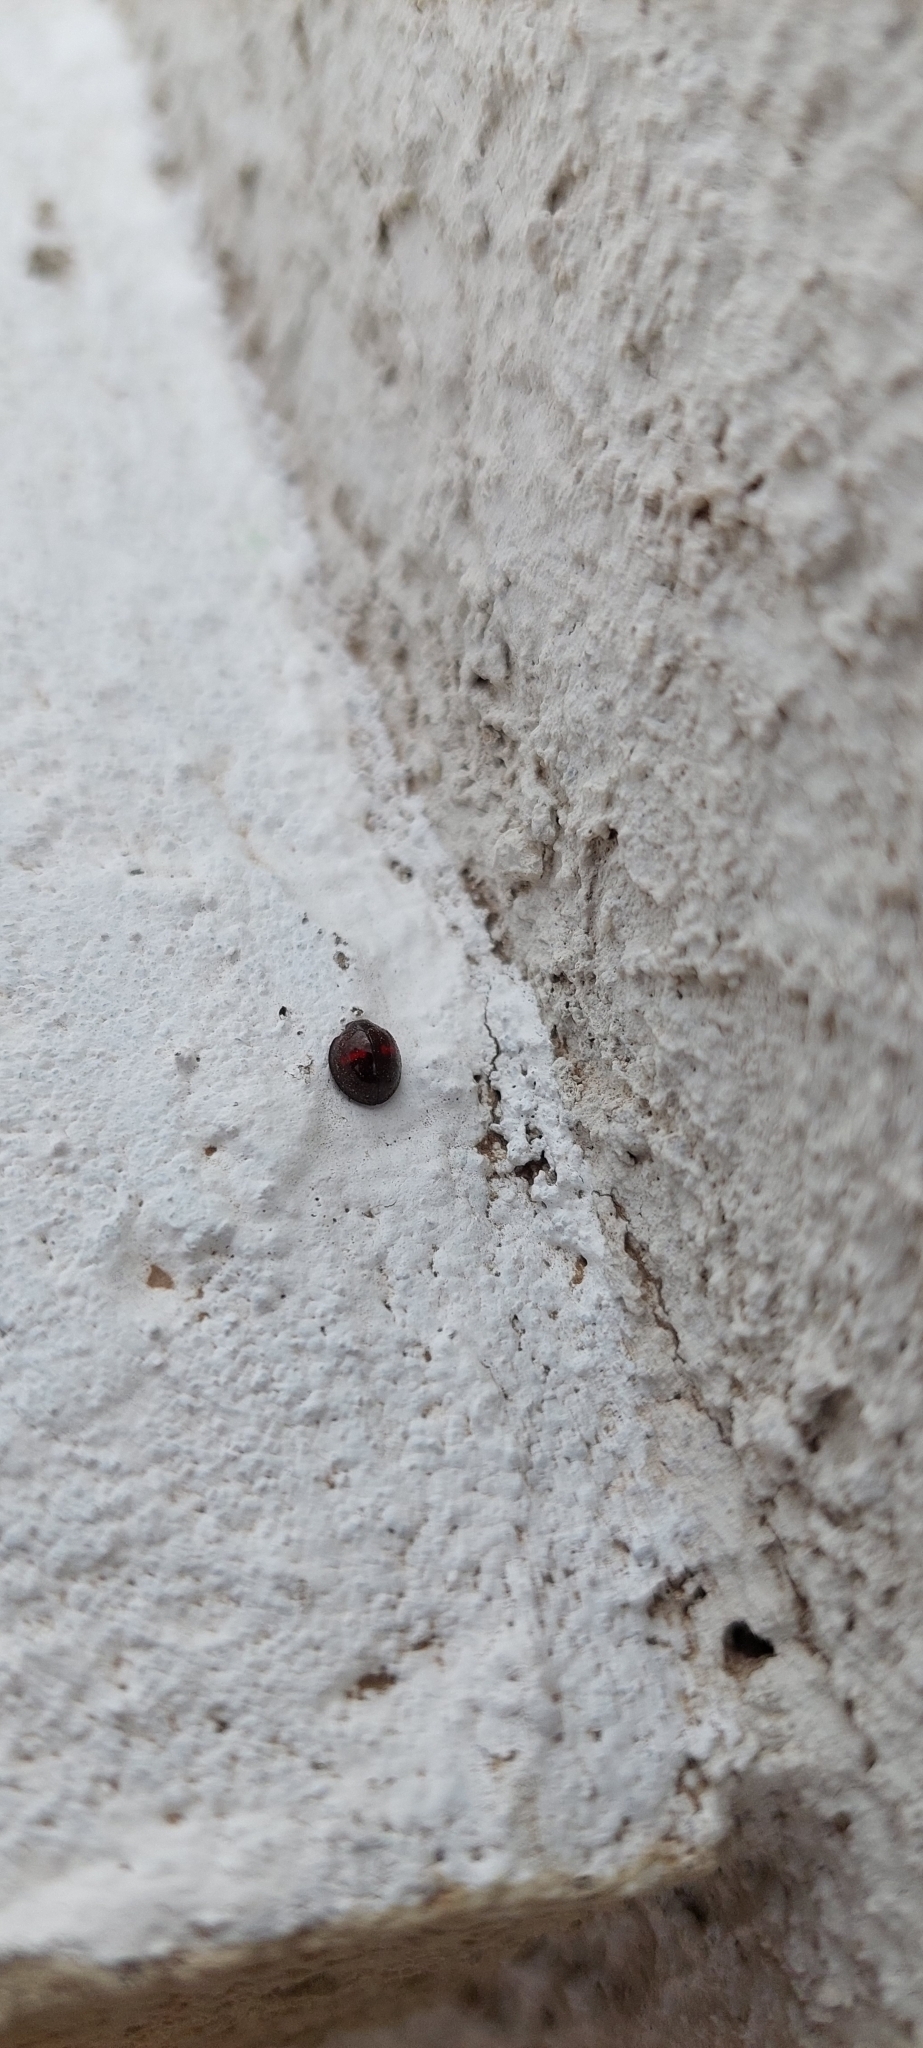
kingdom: Animalia
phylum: Arthropoda
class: Insecta
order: Coleoptera
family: Coccinellidae
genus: Chilocorus
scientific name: Chilocorus bipustulatus
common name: Heather ladybird
